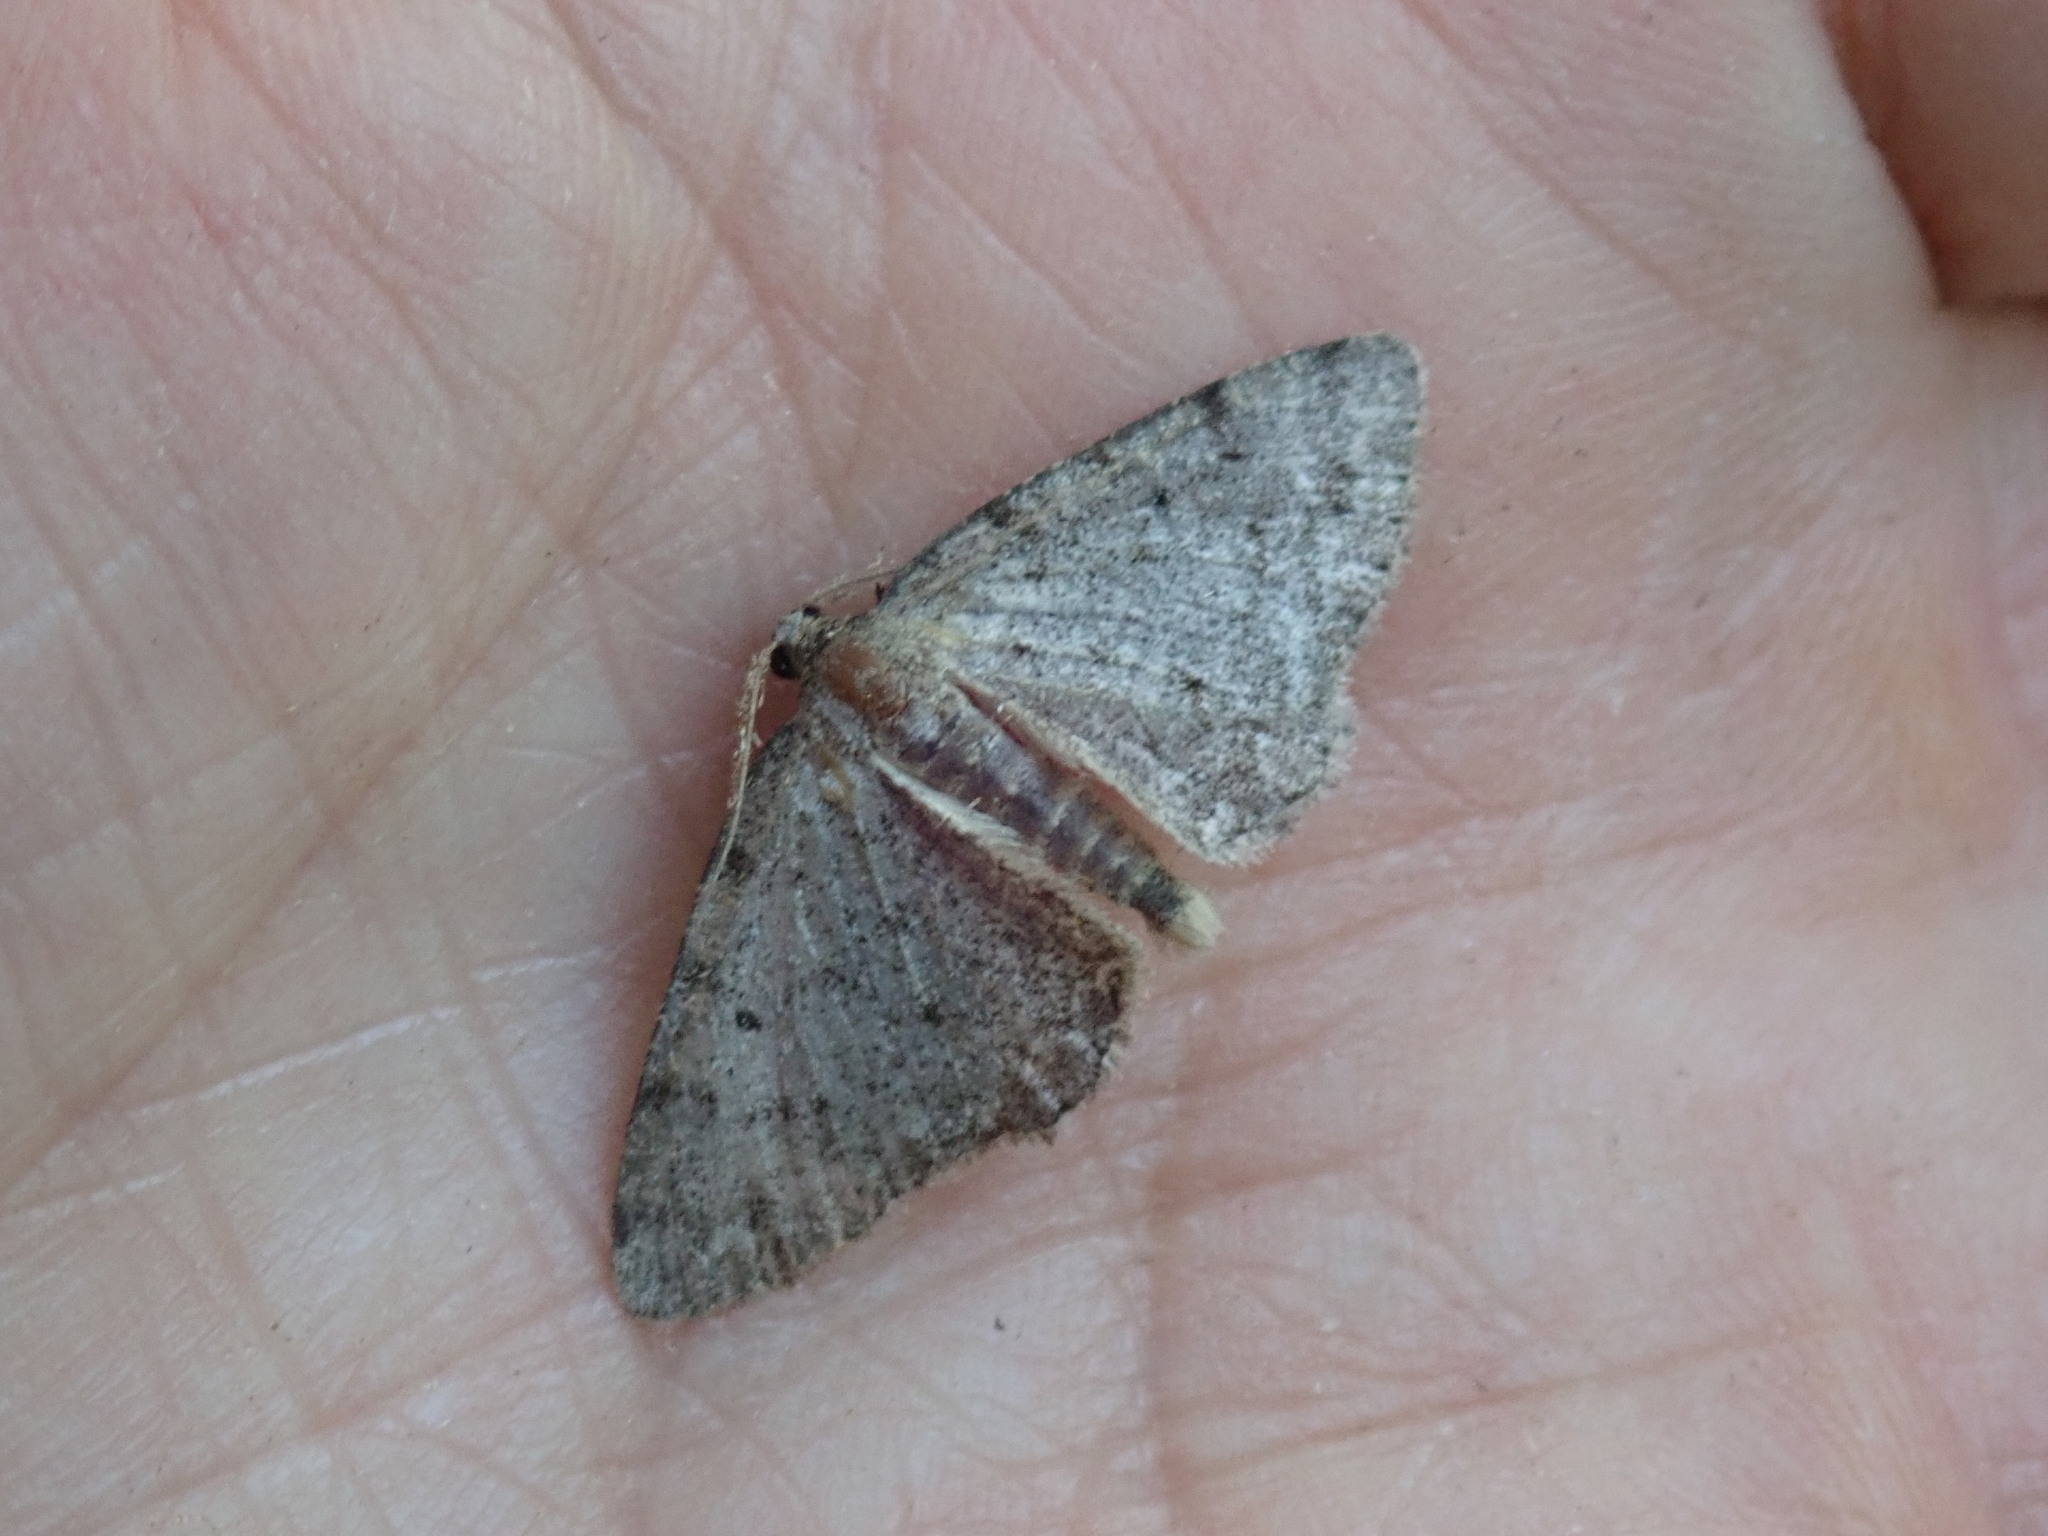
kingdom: Animalia
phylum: Arthropoda
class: Insecta
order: Lepidoptera
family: Geometridae
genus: Aethalura
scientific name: Aethalura intertexta
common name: Four-barred gray
